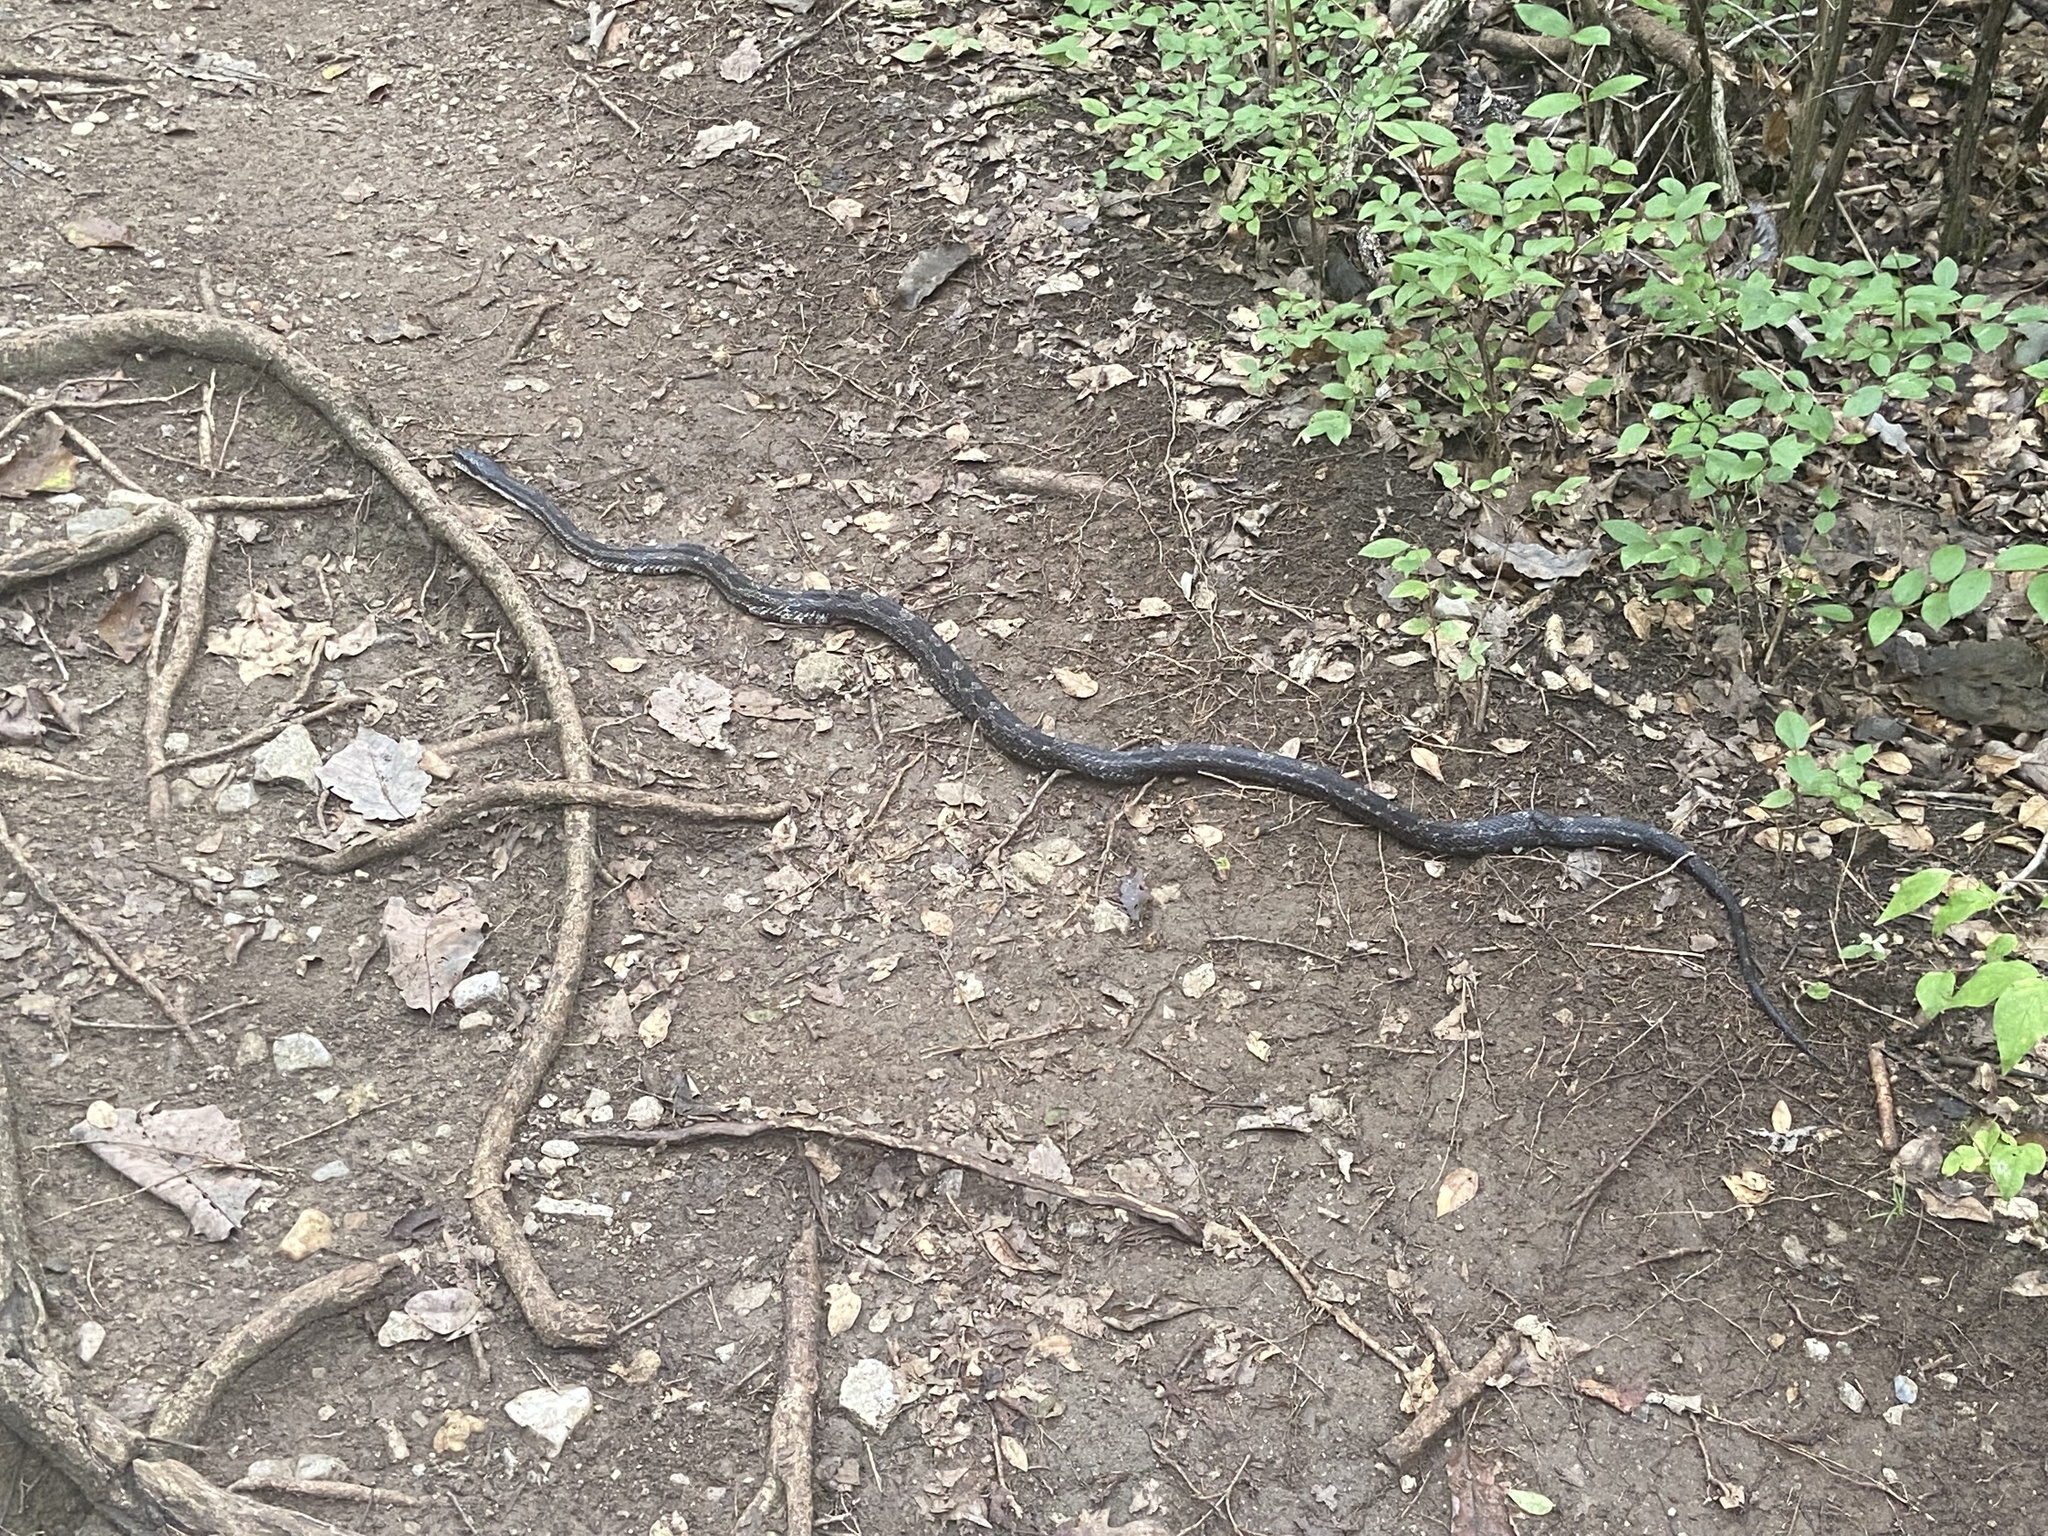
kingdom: Animalia
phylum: Chordata
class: Squamata
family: Colubridae
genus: Pantherophis
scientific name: Pantherophis spiloides
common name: Gray rat snake
